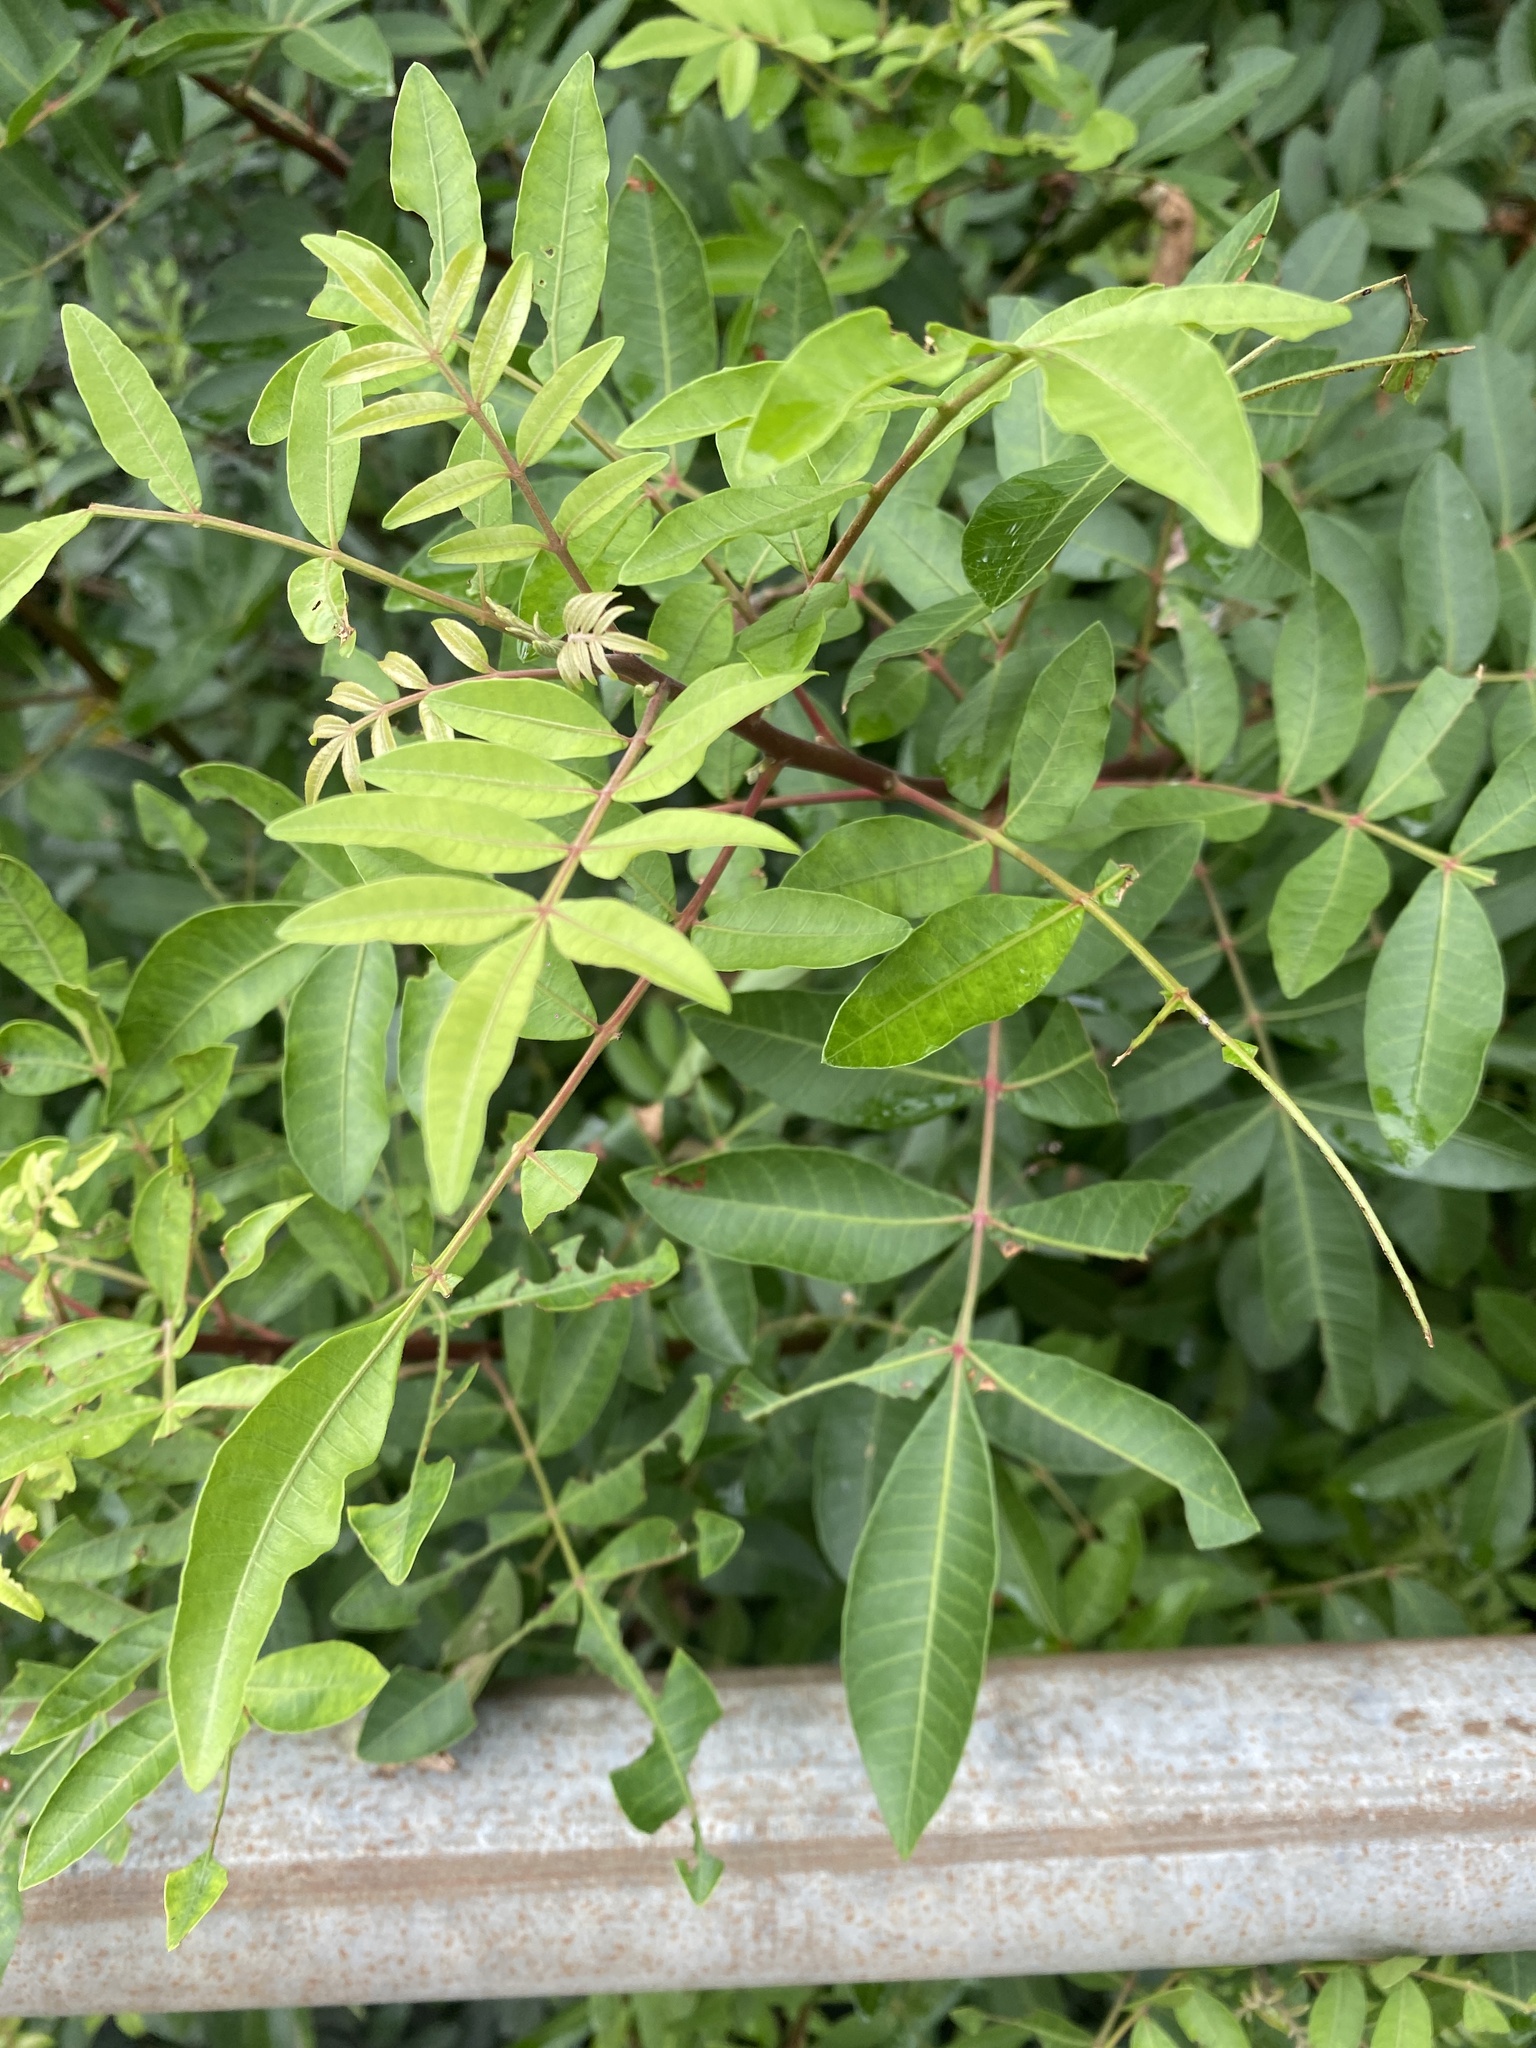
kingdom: Plantae
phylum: Tracheophyta
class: Magnoliopsida
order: Sapindales
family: Anacardiaceae
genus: Schinus
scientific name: Schinus terebinthifolia
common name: Brazilian peppertree
